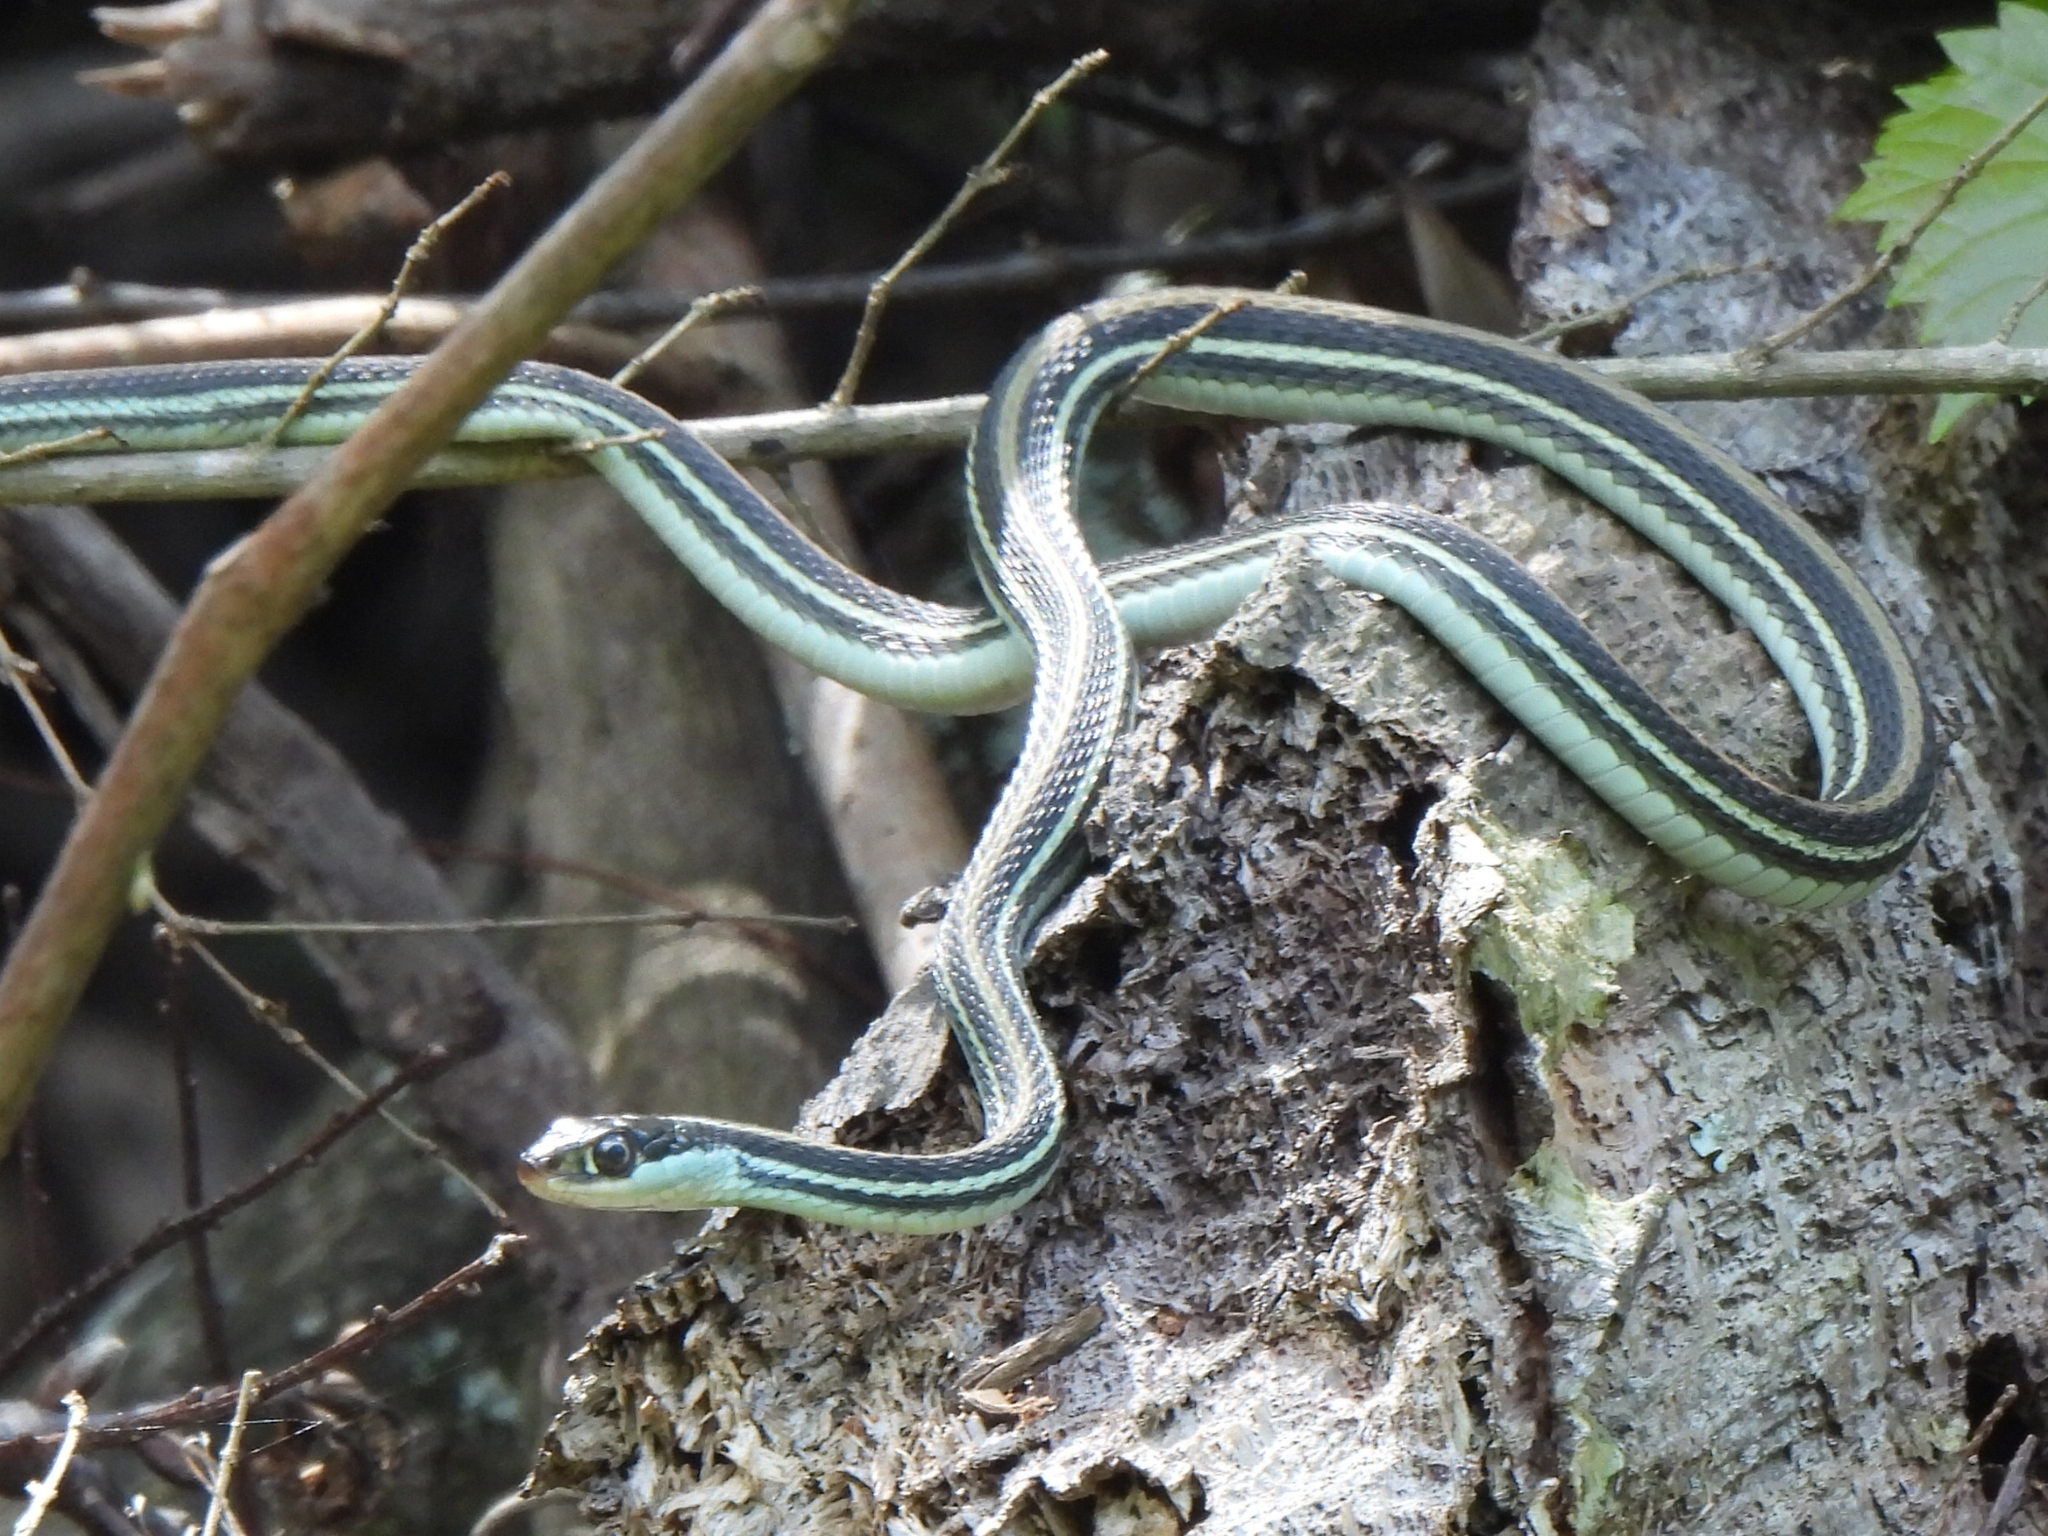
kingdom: Animalia
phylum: Chordata
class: Squamata
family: Colubridae
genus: Thamnophis
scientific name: Thamnophis proximus
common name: Western ribbon snake
